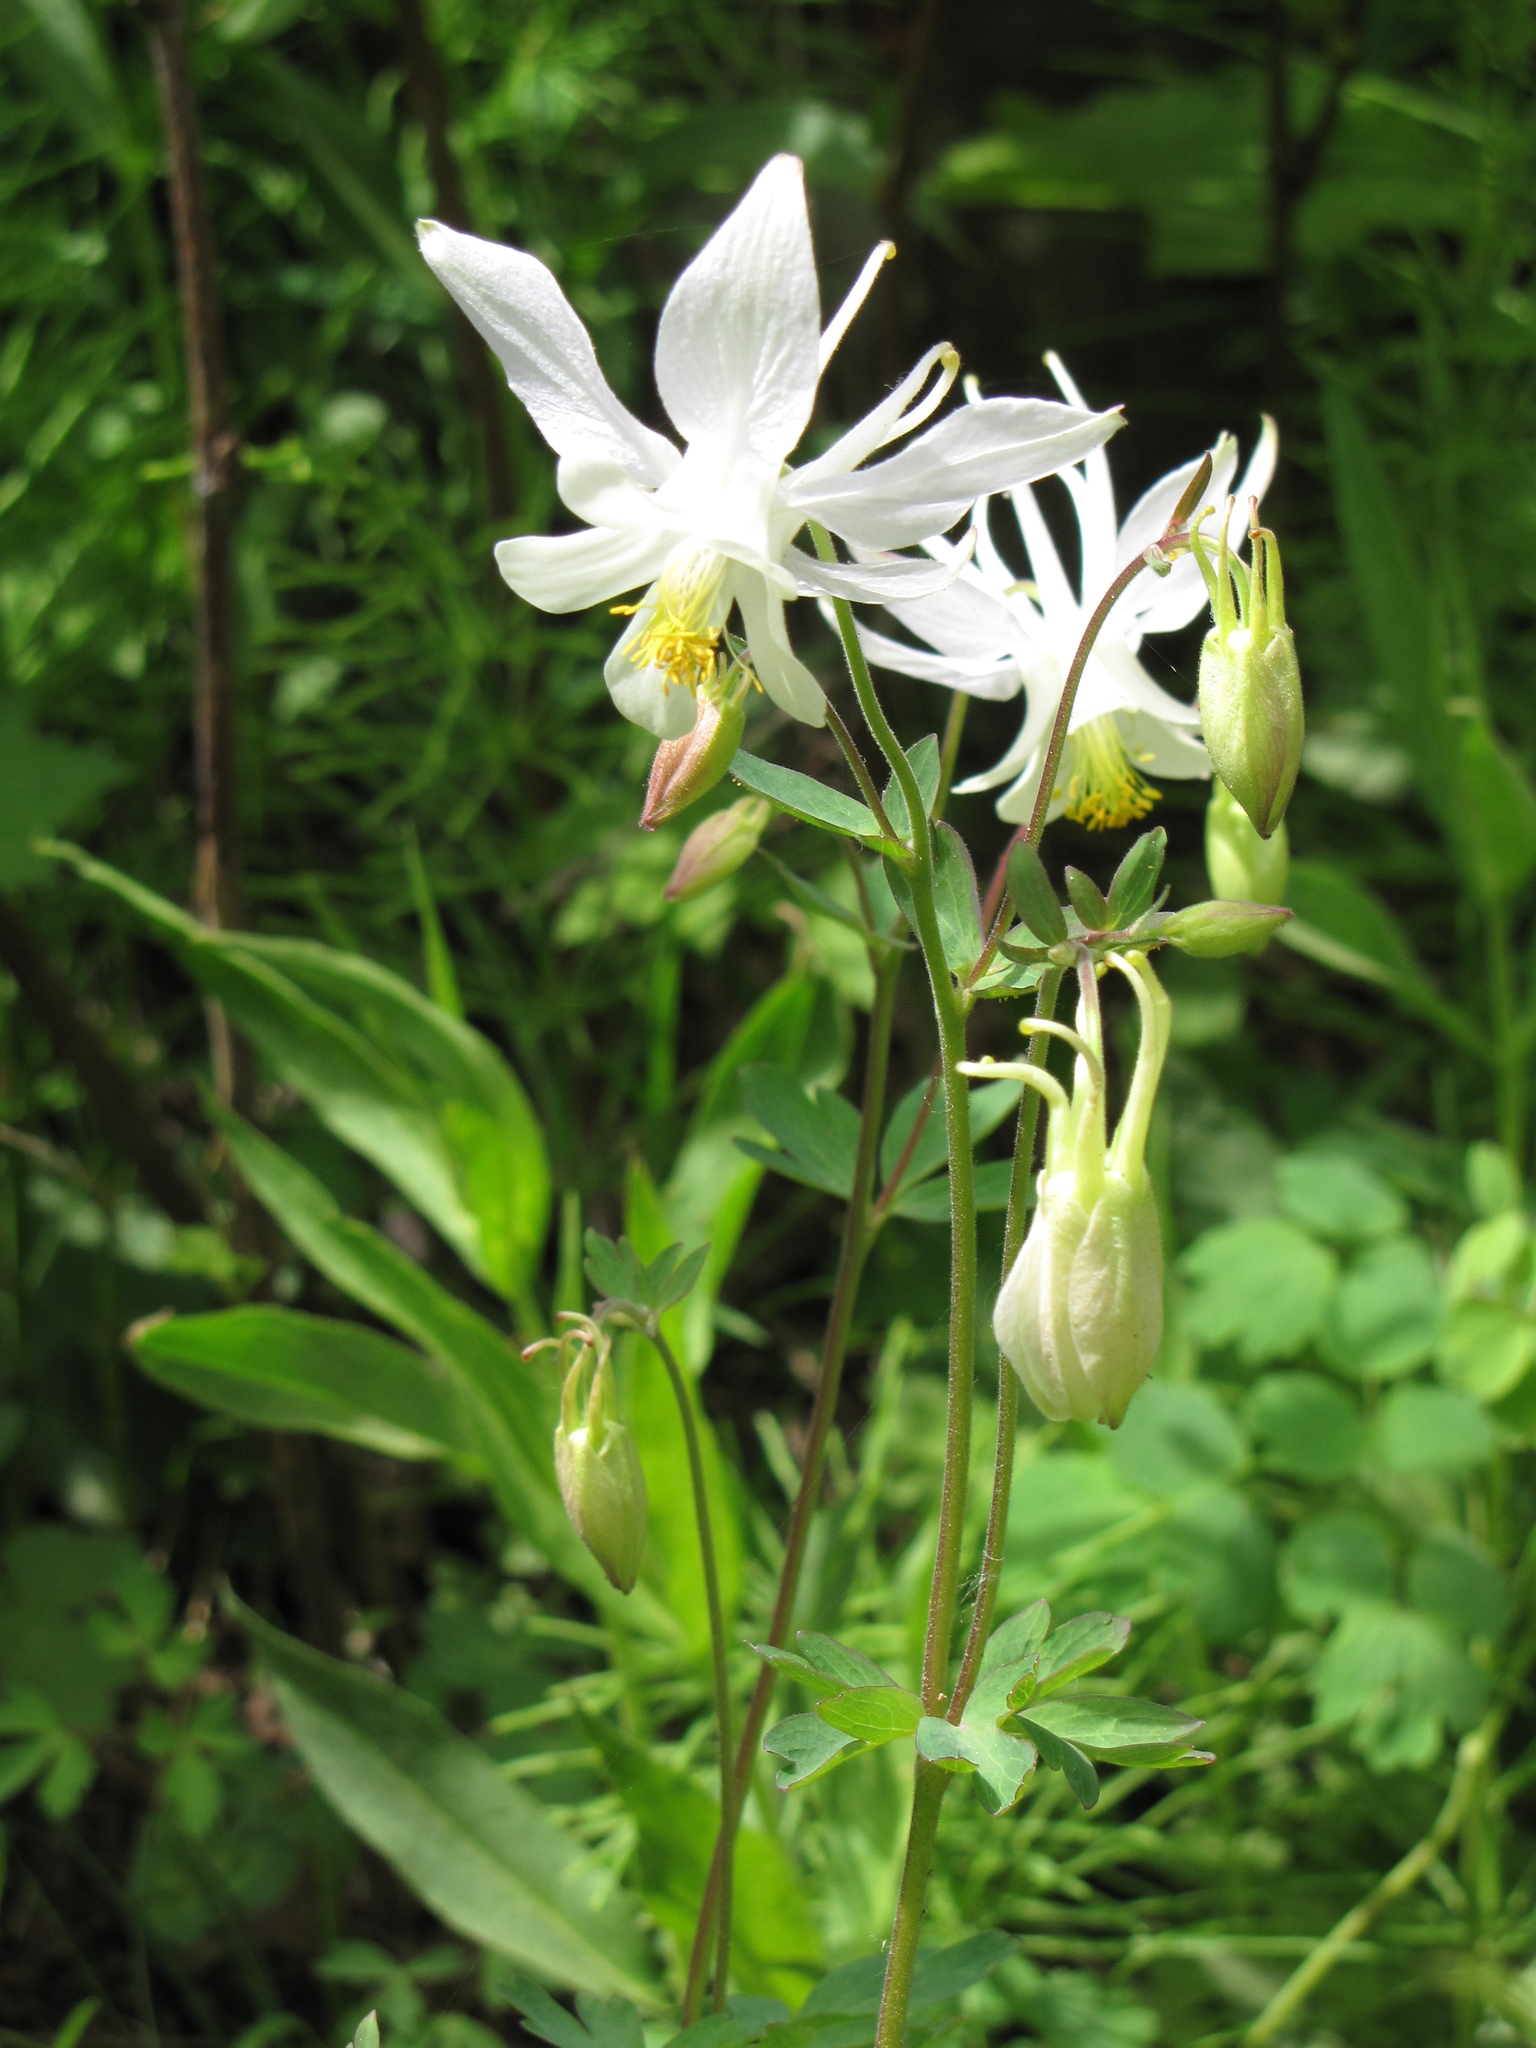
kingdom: Plantae
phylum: Tracheophyta
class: Magnoliopsida
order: Ranunculales
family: Ranunculaceae
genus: Aquilegia
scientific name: Aquilegia coerulea
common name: Rocky mountain columbine
